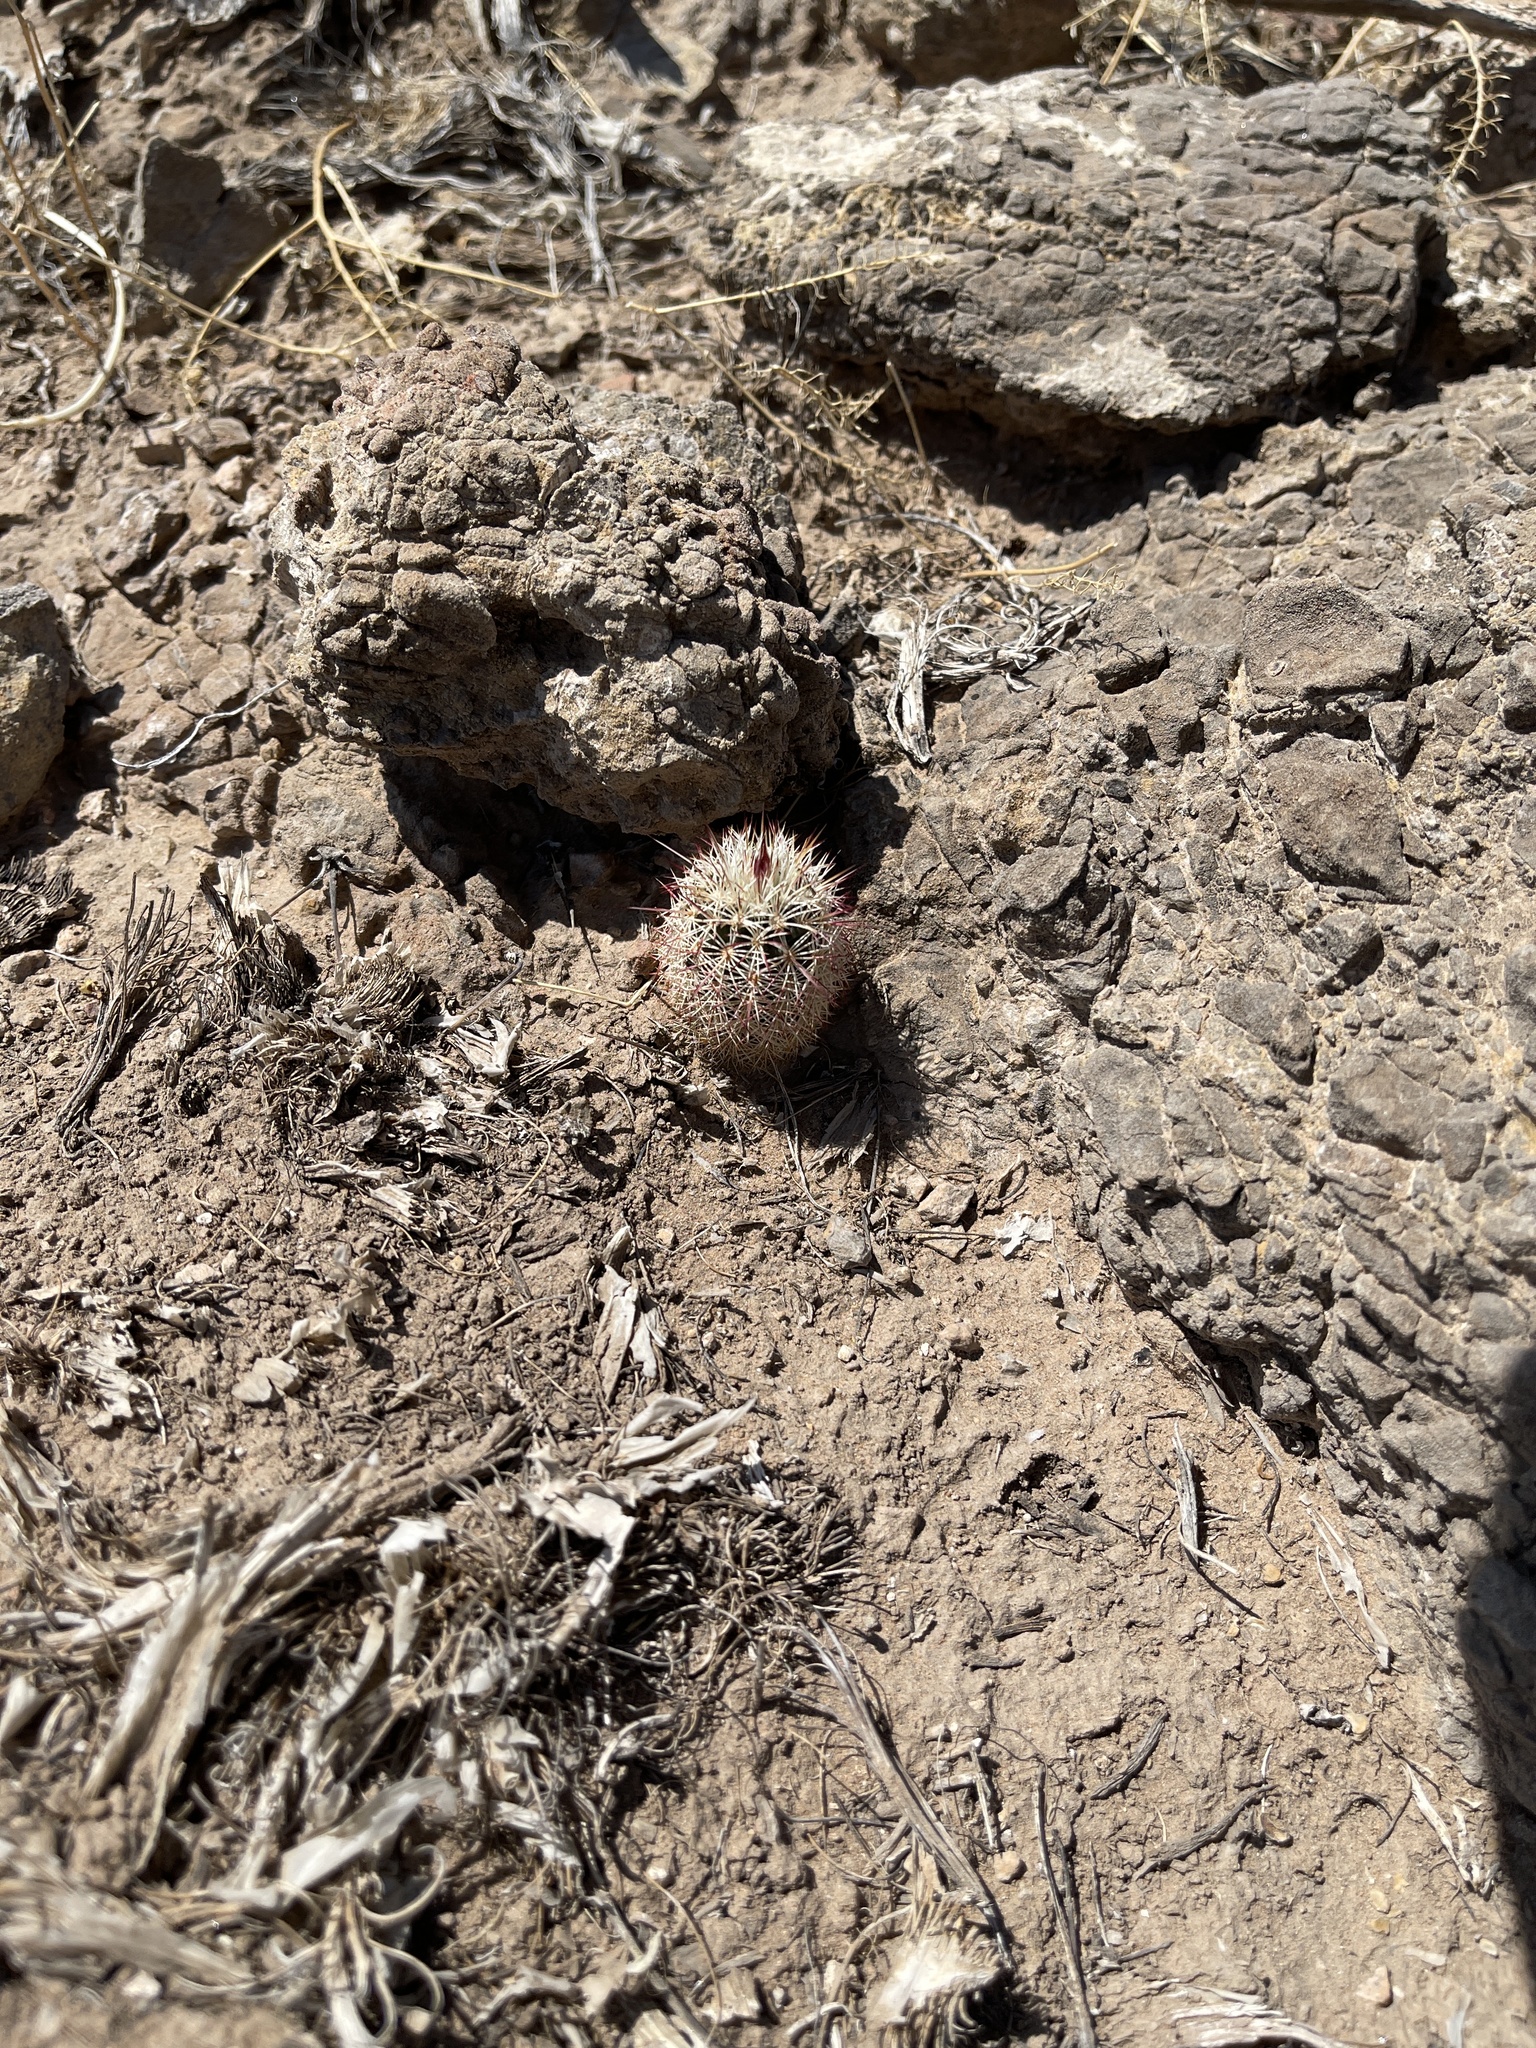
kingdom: Plantae
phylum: Tracheophyta
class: Magnoliopsida
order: Caryophyllales
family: Cactaceae
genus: Echinocereus
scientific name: Echinocereus viridiflorus
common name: Nylon hedgehog cactus
